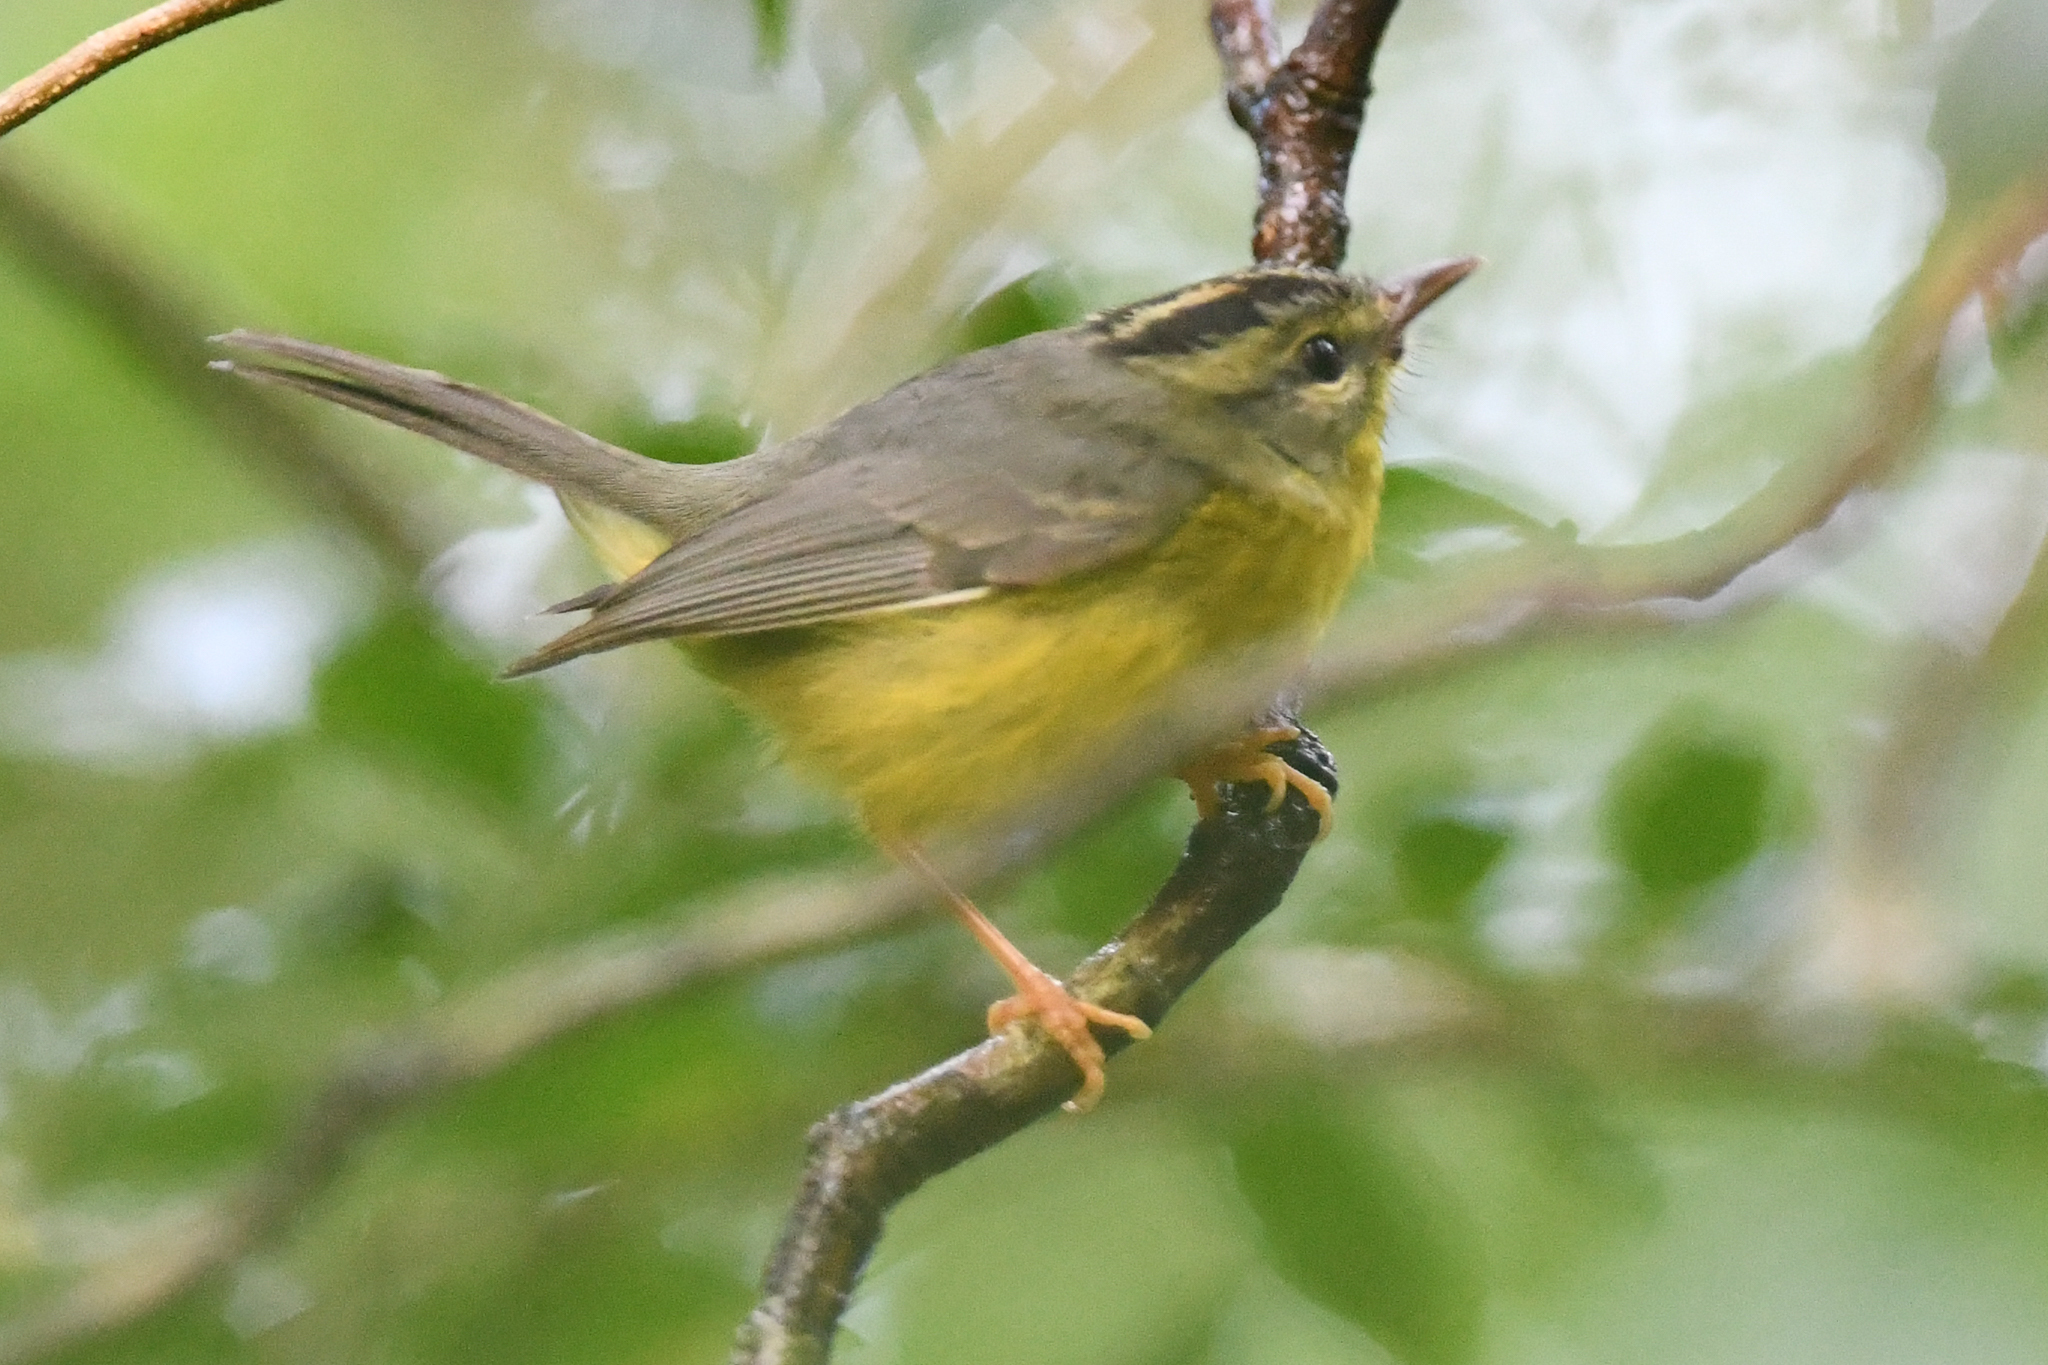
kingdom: Animalia
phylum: Chordata
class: Aves
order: Passeriformes
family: Parulidae
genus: Basileuterus
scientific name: Basileuterus culicivorus
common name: Golden-crowned warbler
